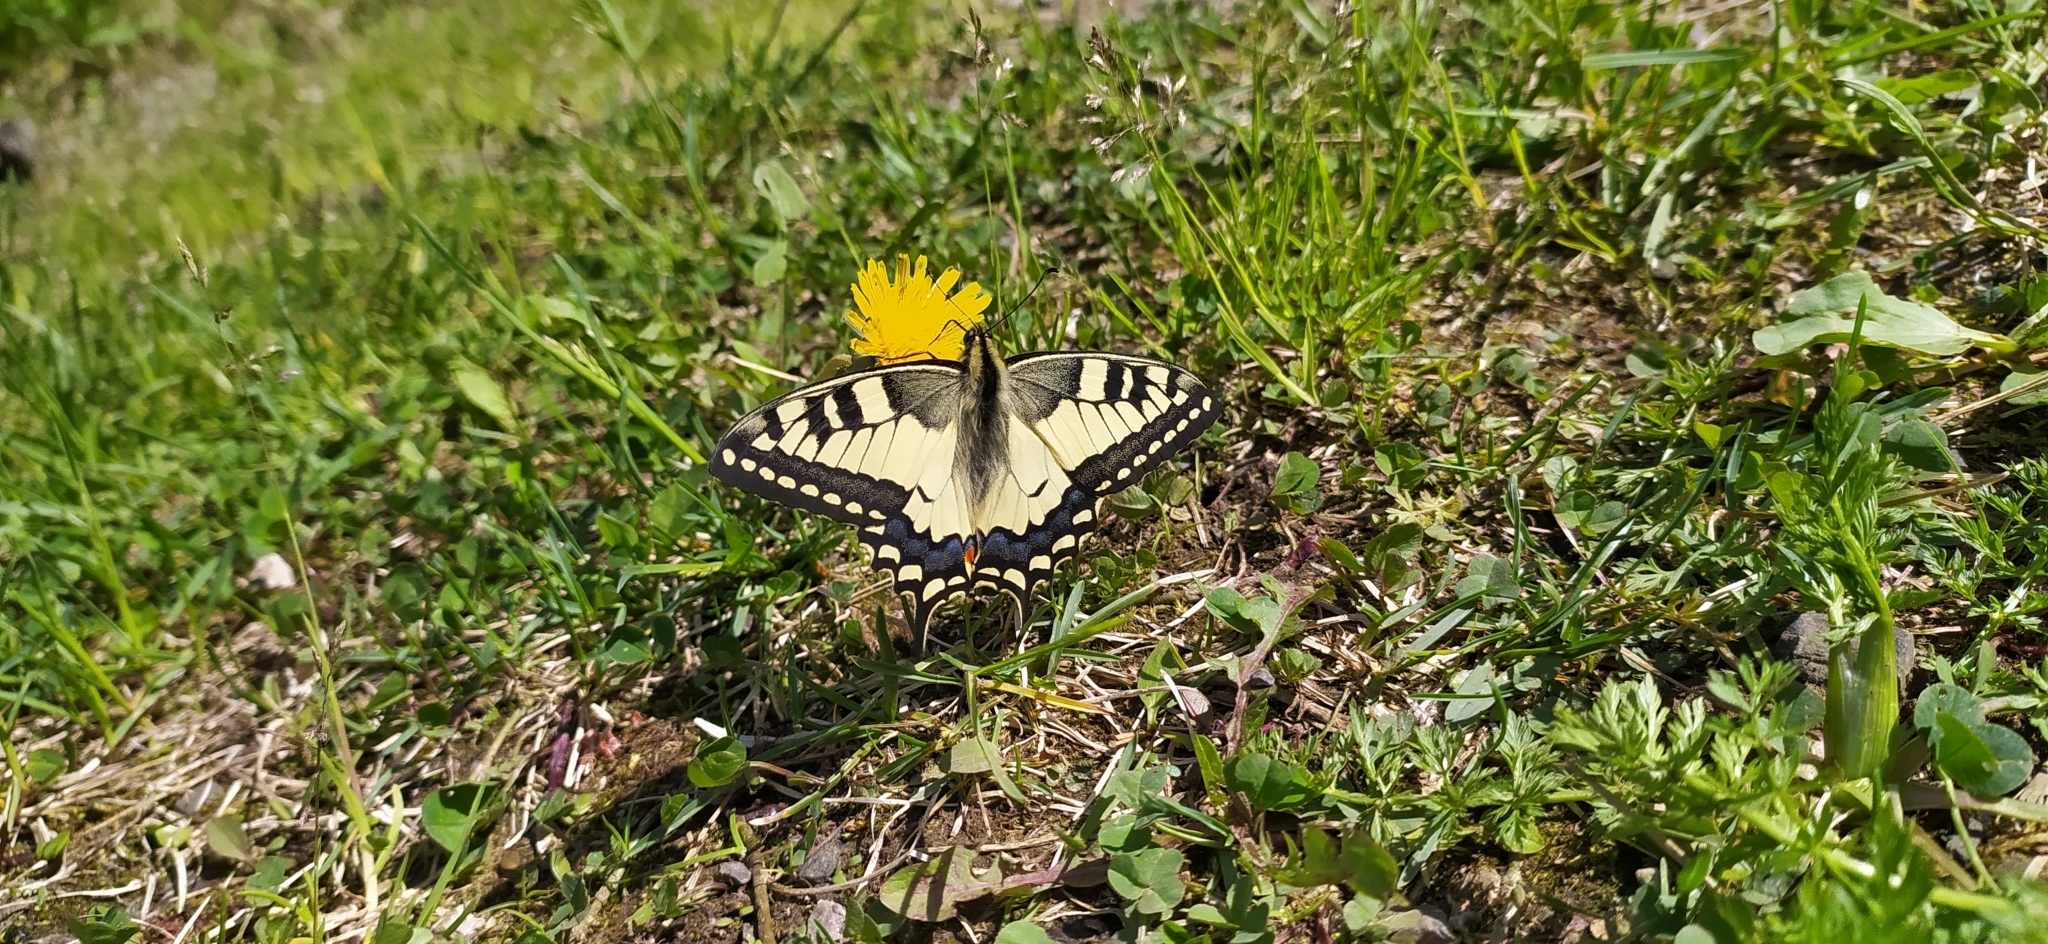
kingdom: Animalia
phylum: Arthropoda
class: Insecta
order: Lepidoptera
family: Papilionidae
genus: Papilio
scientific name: Papilio machaon
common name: Swallowtail
